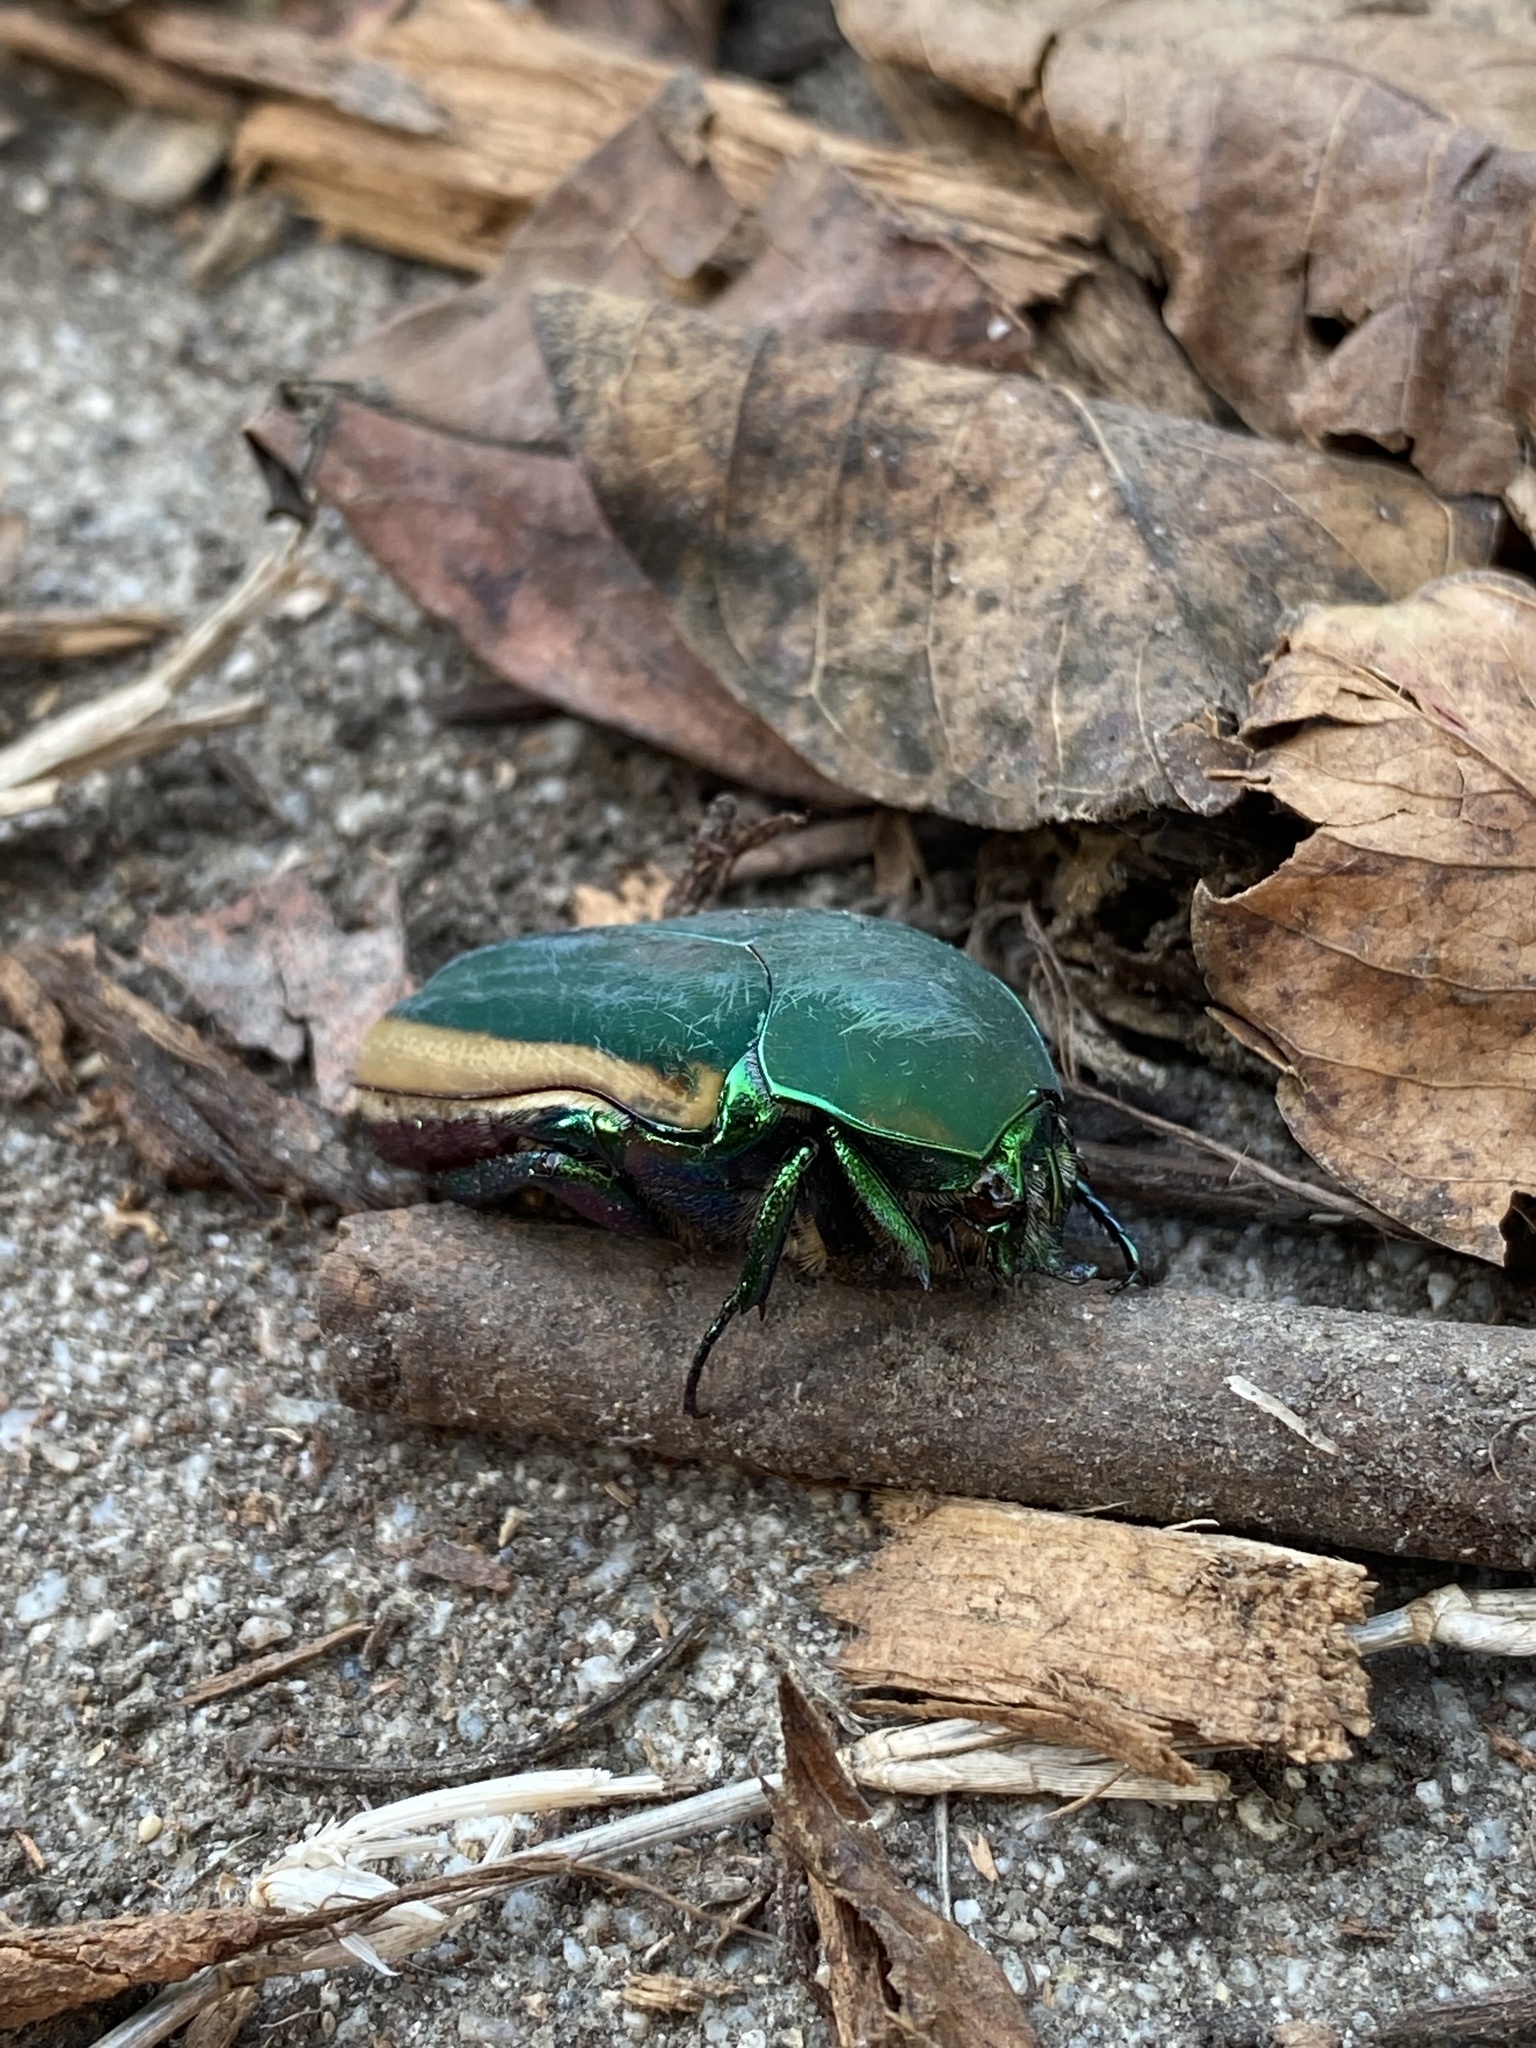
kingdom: Animalia
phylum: Arthropoda
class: Insecta
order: Coleoptera
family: Scarabaeidae
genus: Cotinis
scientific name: Cotinis mutabilis
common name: Figeater beetle
